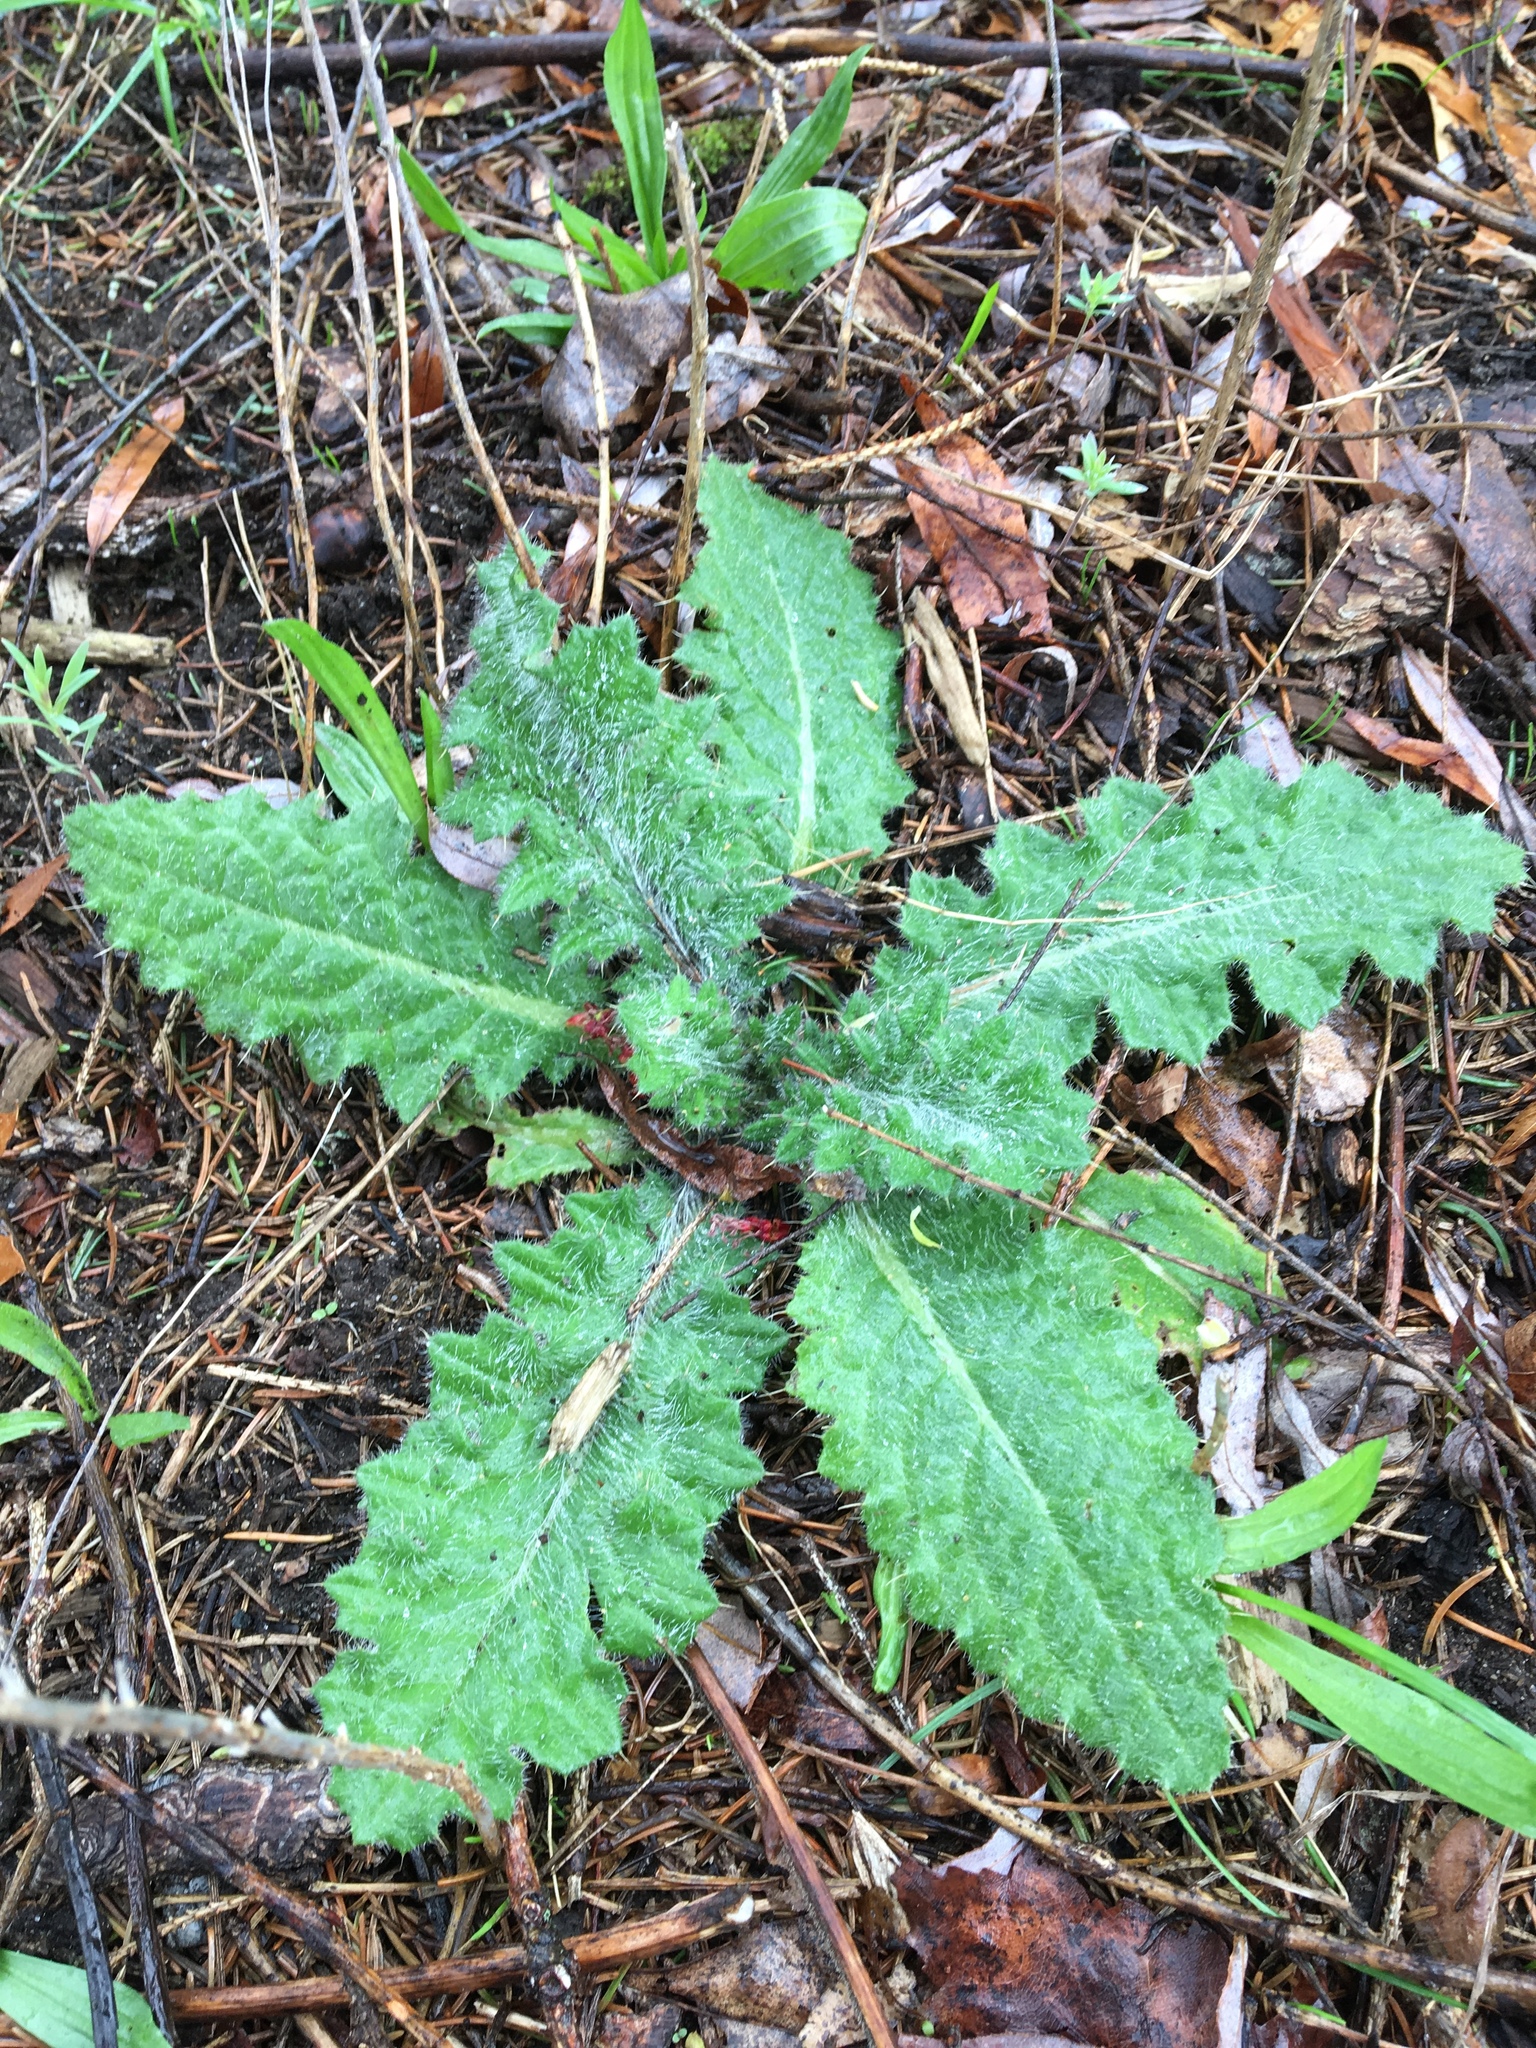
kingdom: Plantae
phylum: Tracheophyta
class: Magnoliopsida
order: Asterales
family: Asteraceae
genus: Cirsium
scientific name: Cirsium vulgare
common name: Bull thistle
